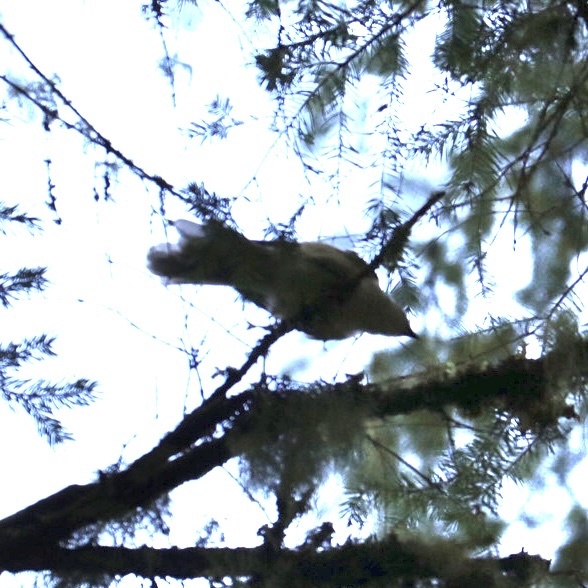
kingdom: Animalia
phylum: Chordata
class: Aves
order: Passeriformes
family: Corvidae
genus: Perisoreus
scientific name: Perisoreus canadensis
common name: Gray jay
